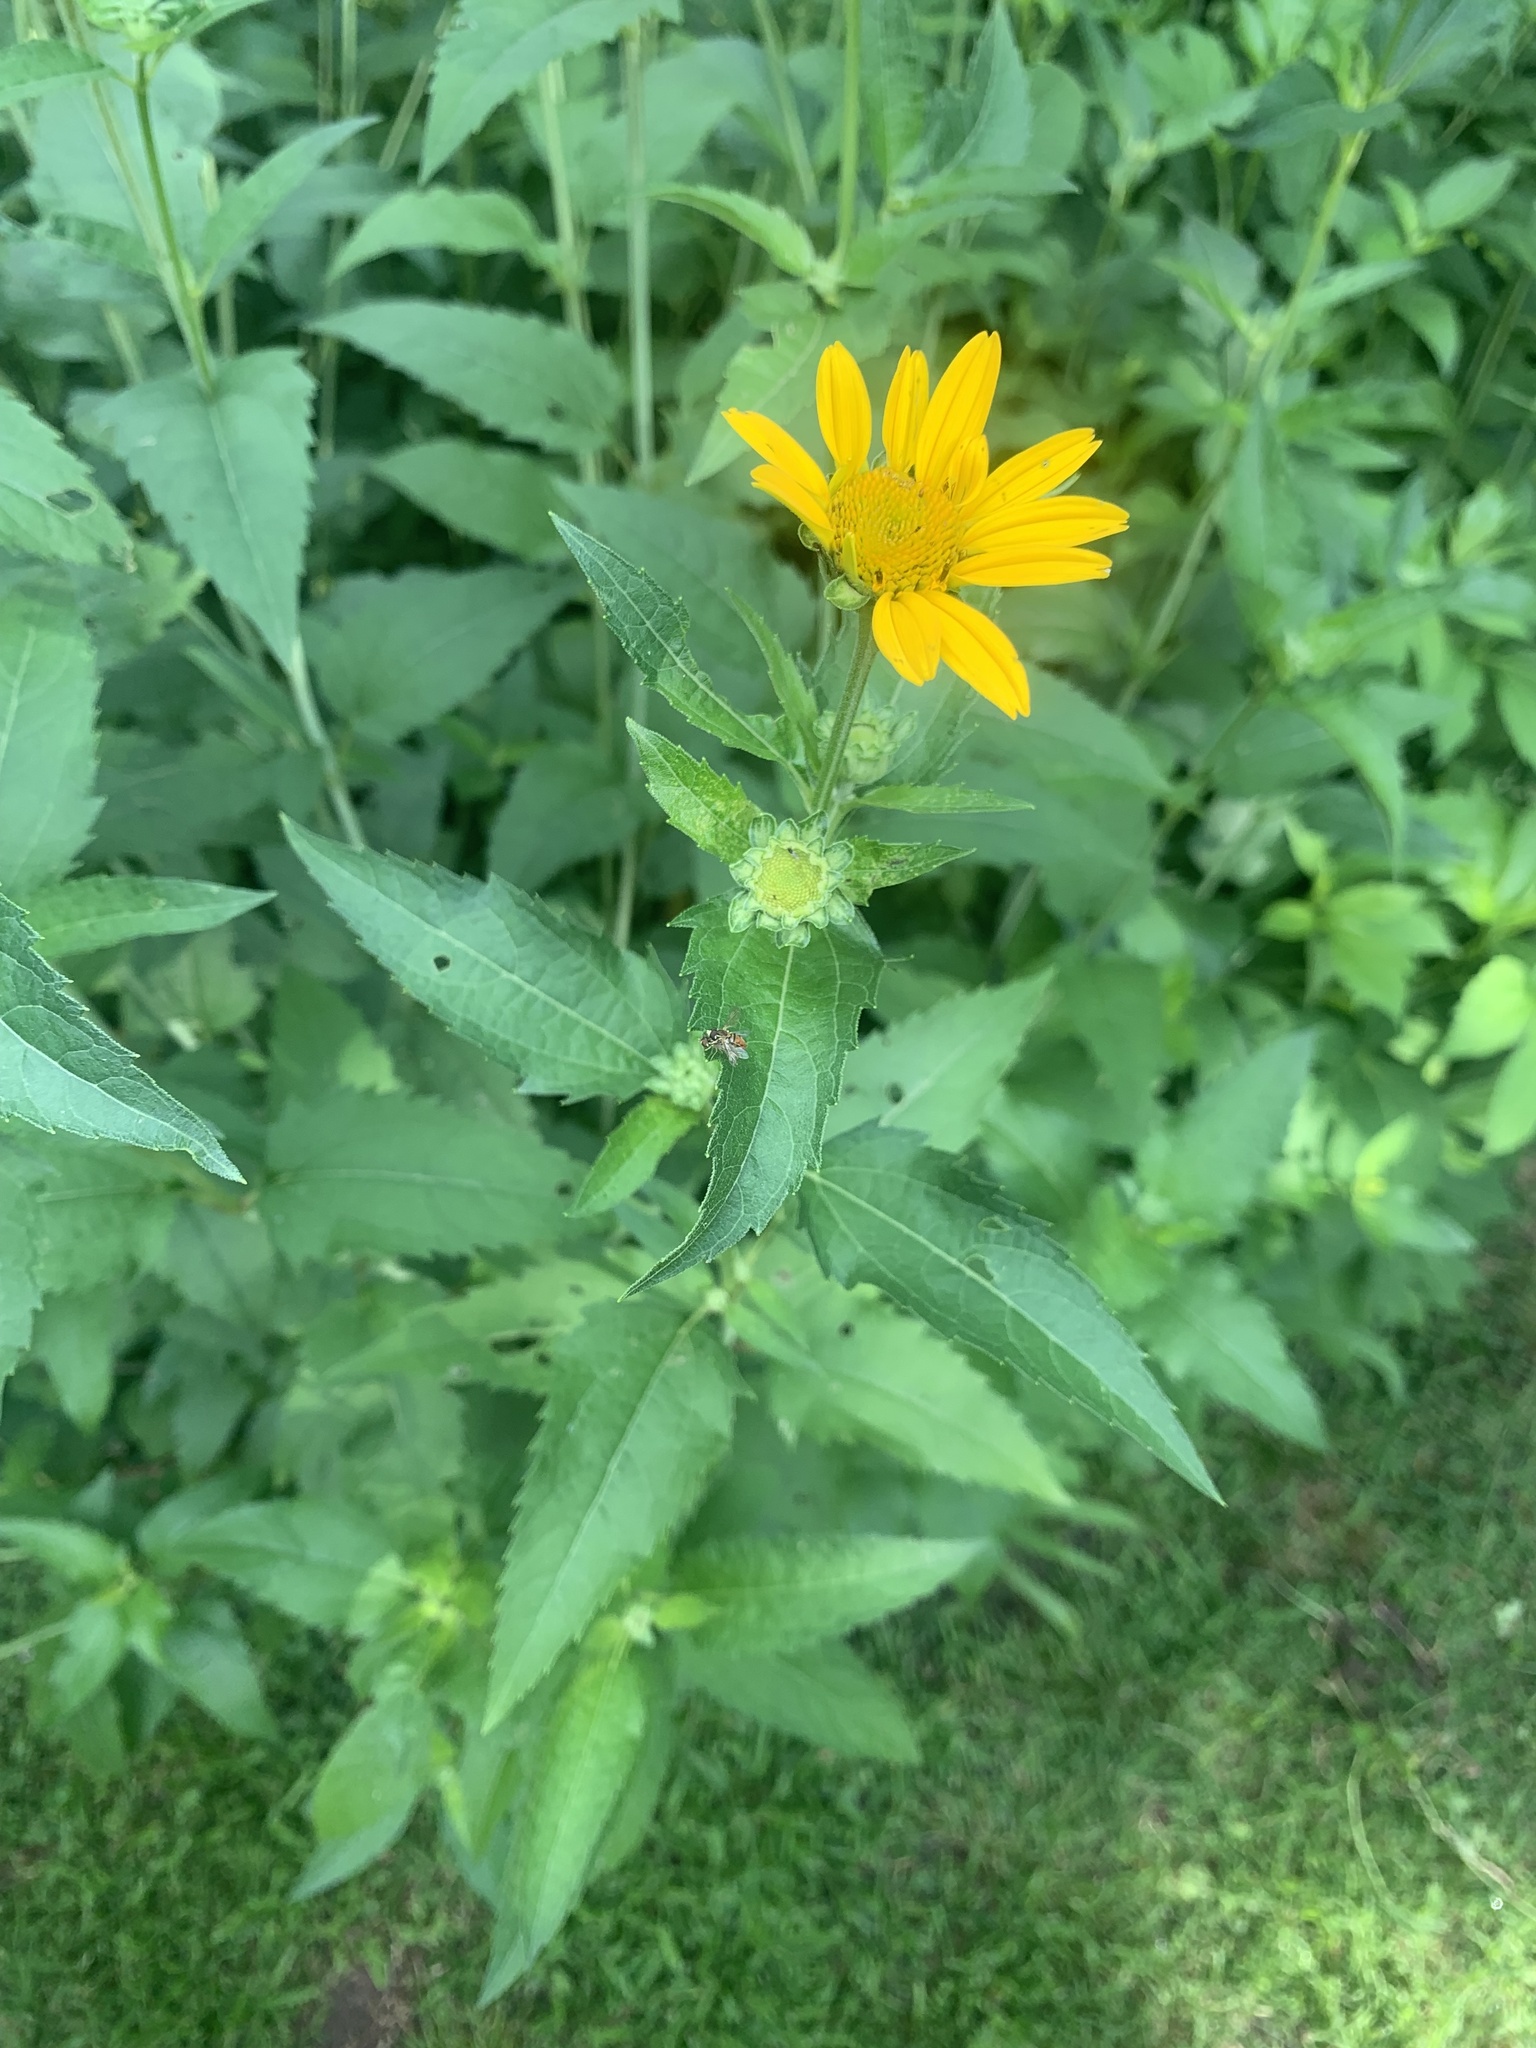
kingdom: Plantae
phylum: Tracheophyta
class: Magnoliopsida
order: Asterales
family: Asteraceae
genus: Heliopsis
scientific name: Heliopsis helianthoides
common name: False sunflower
